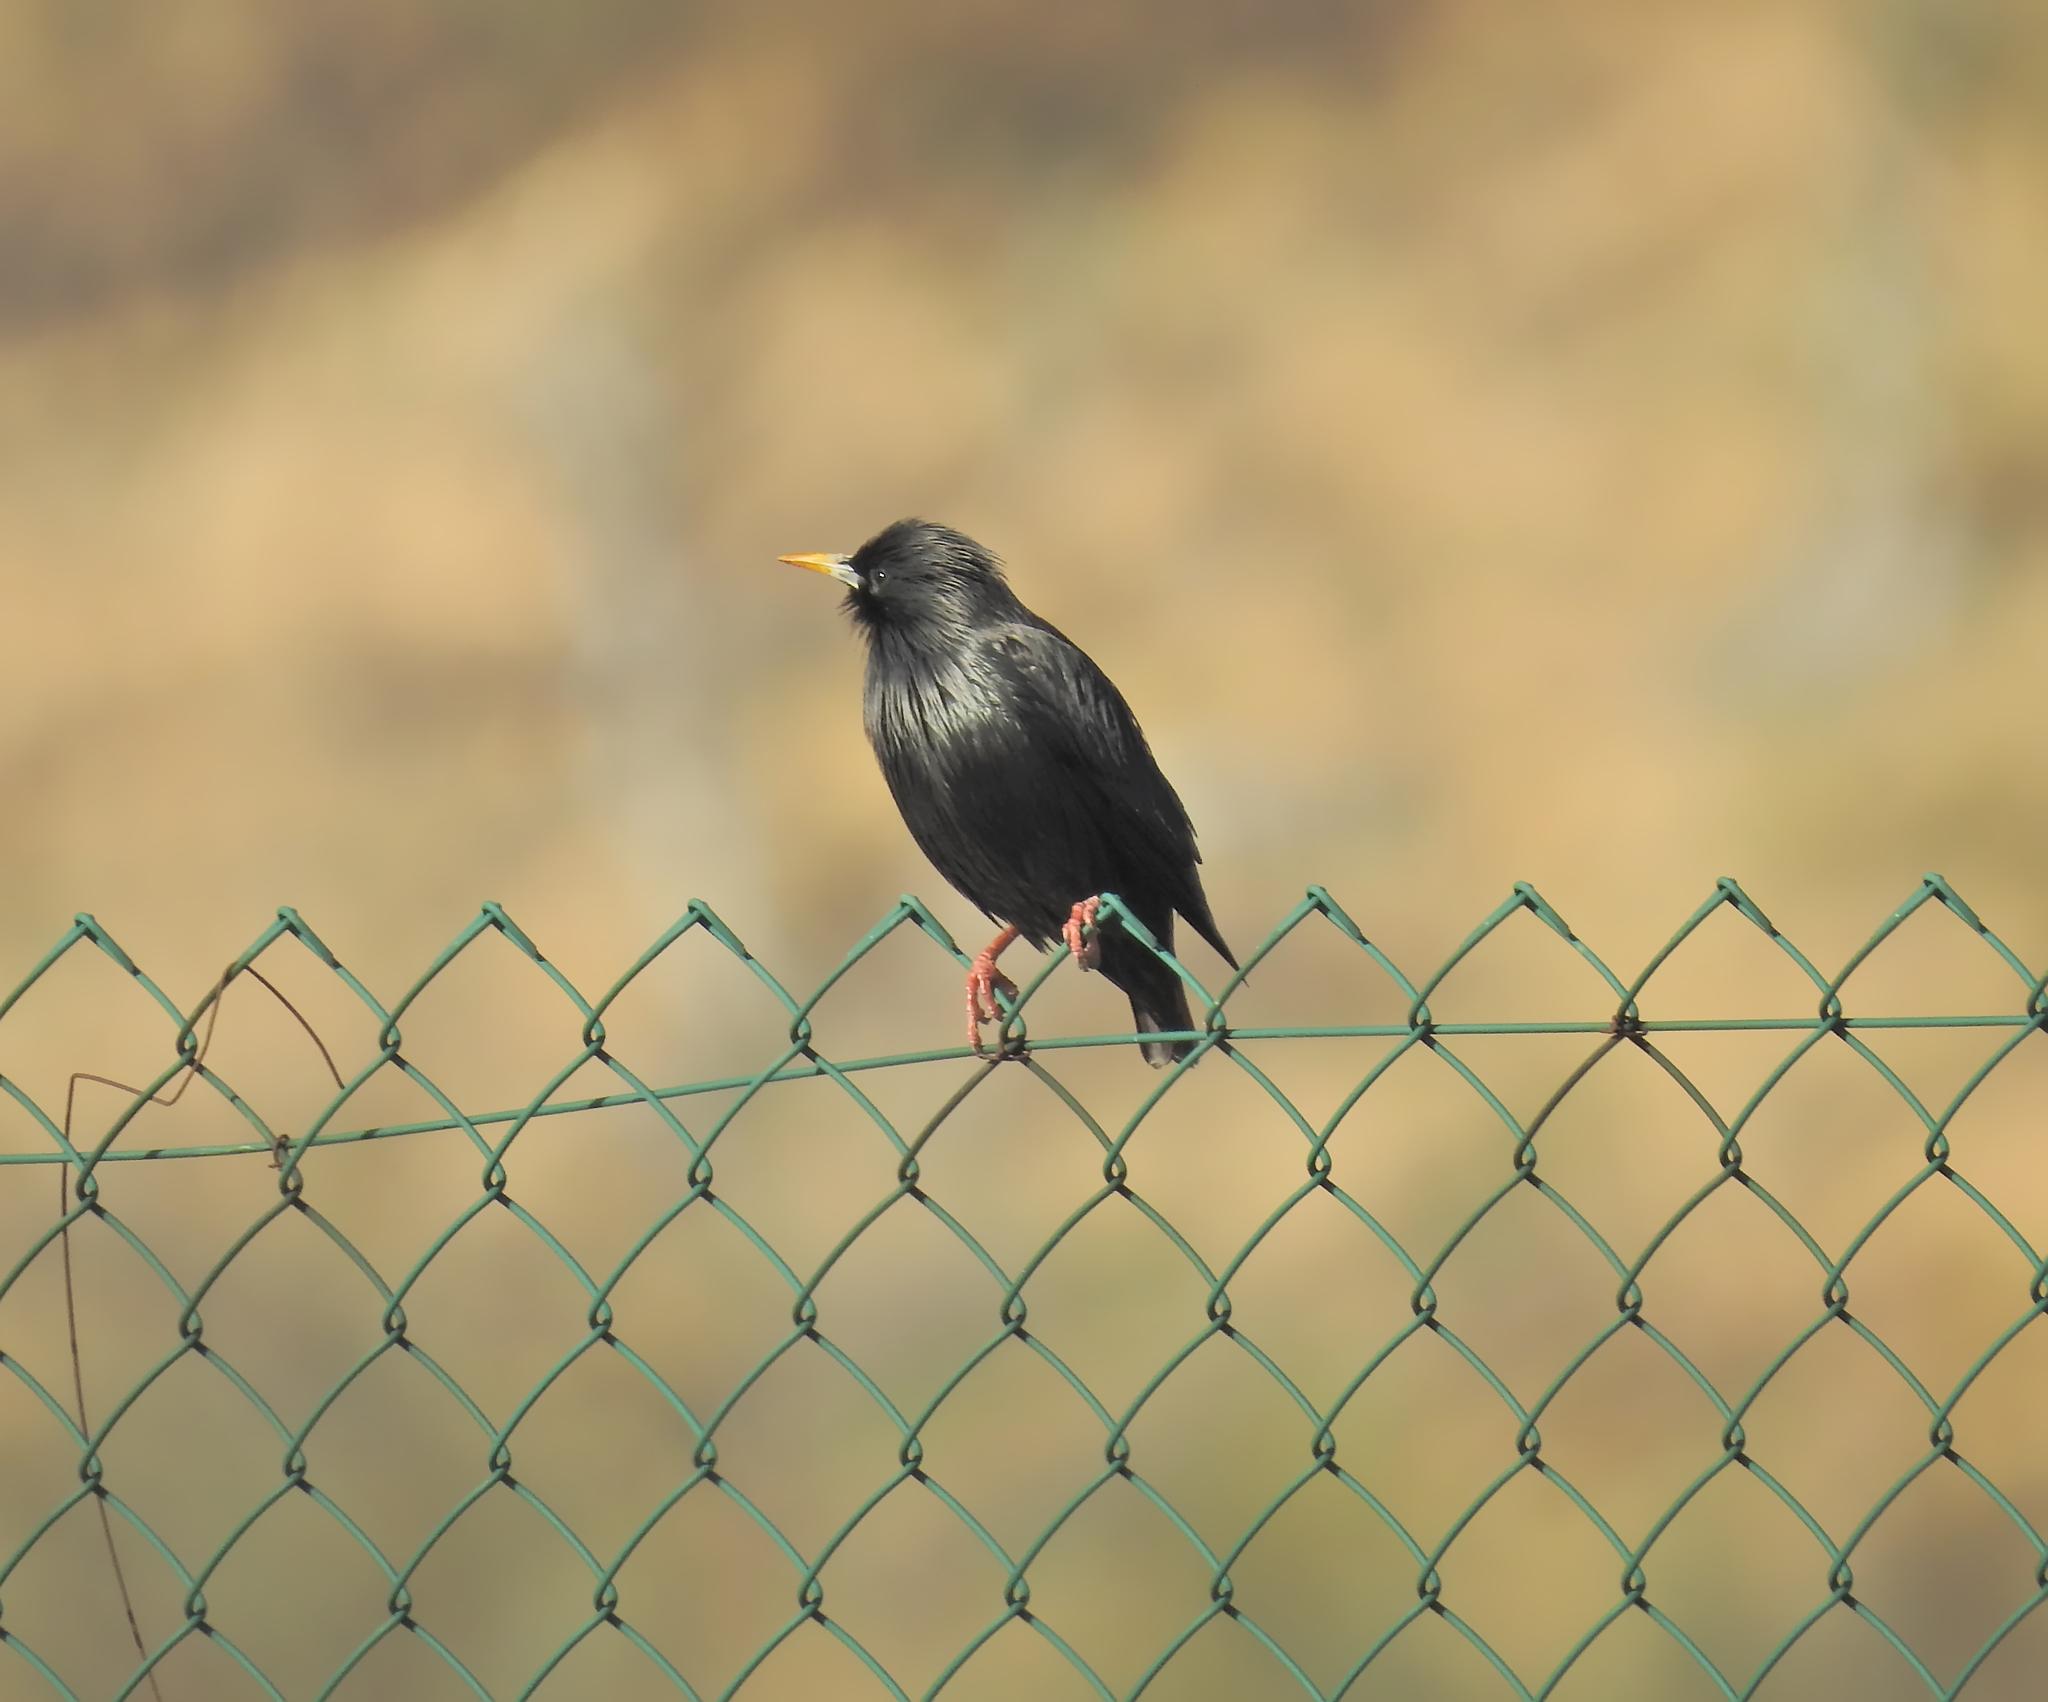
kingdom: Animalia
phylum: Chordata
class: Aves
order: Passeriformes
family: Sturnidae
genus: Sturnus
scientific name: Sturnus unicolor
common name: Spotless starling
